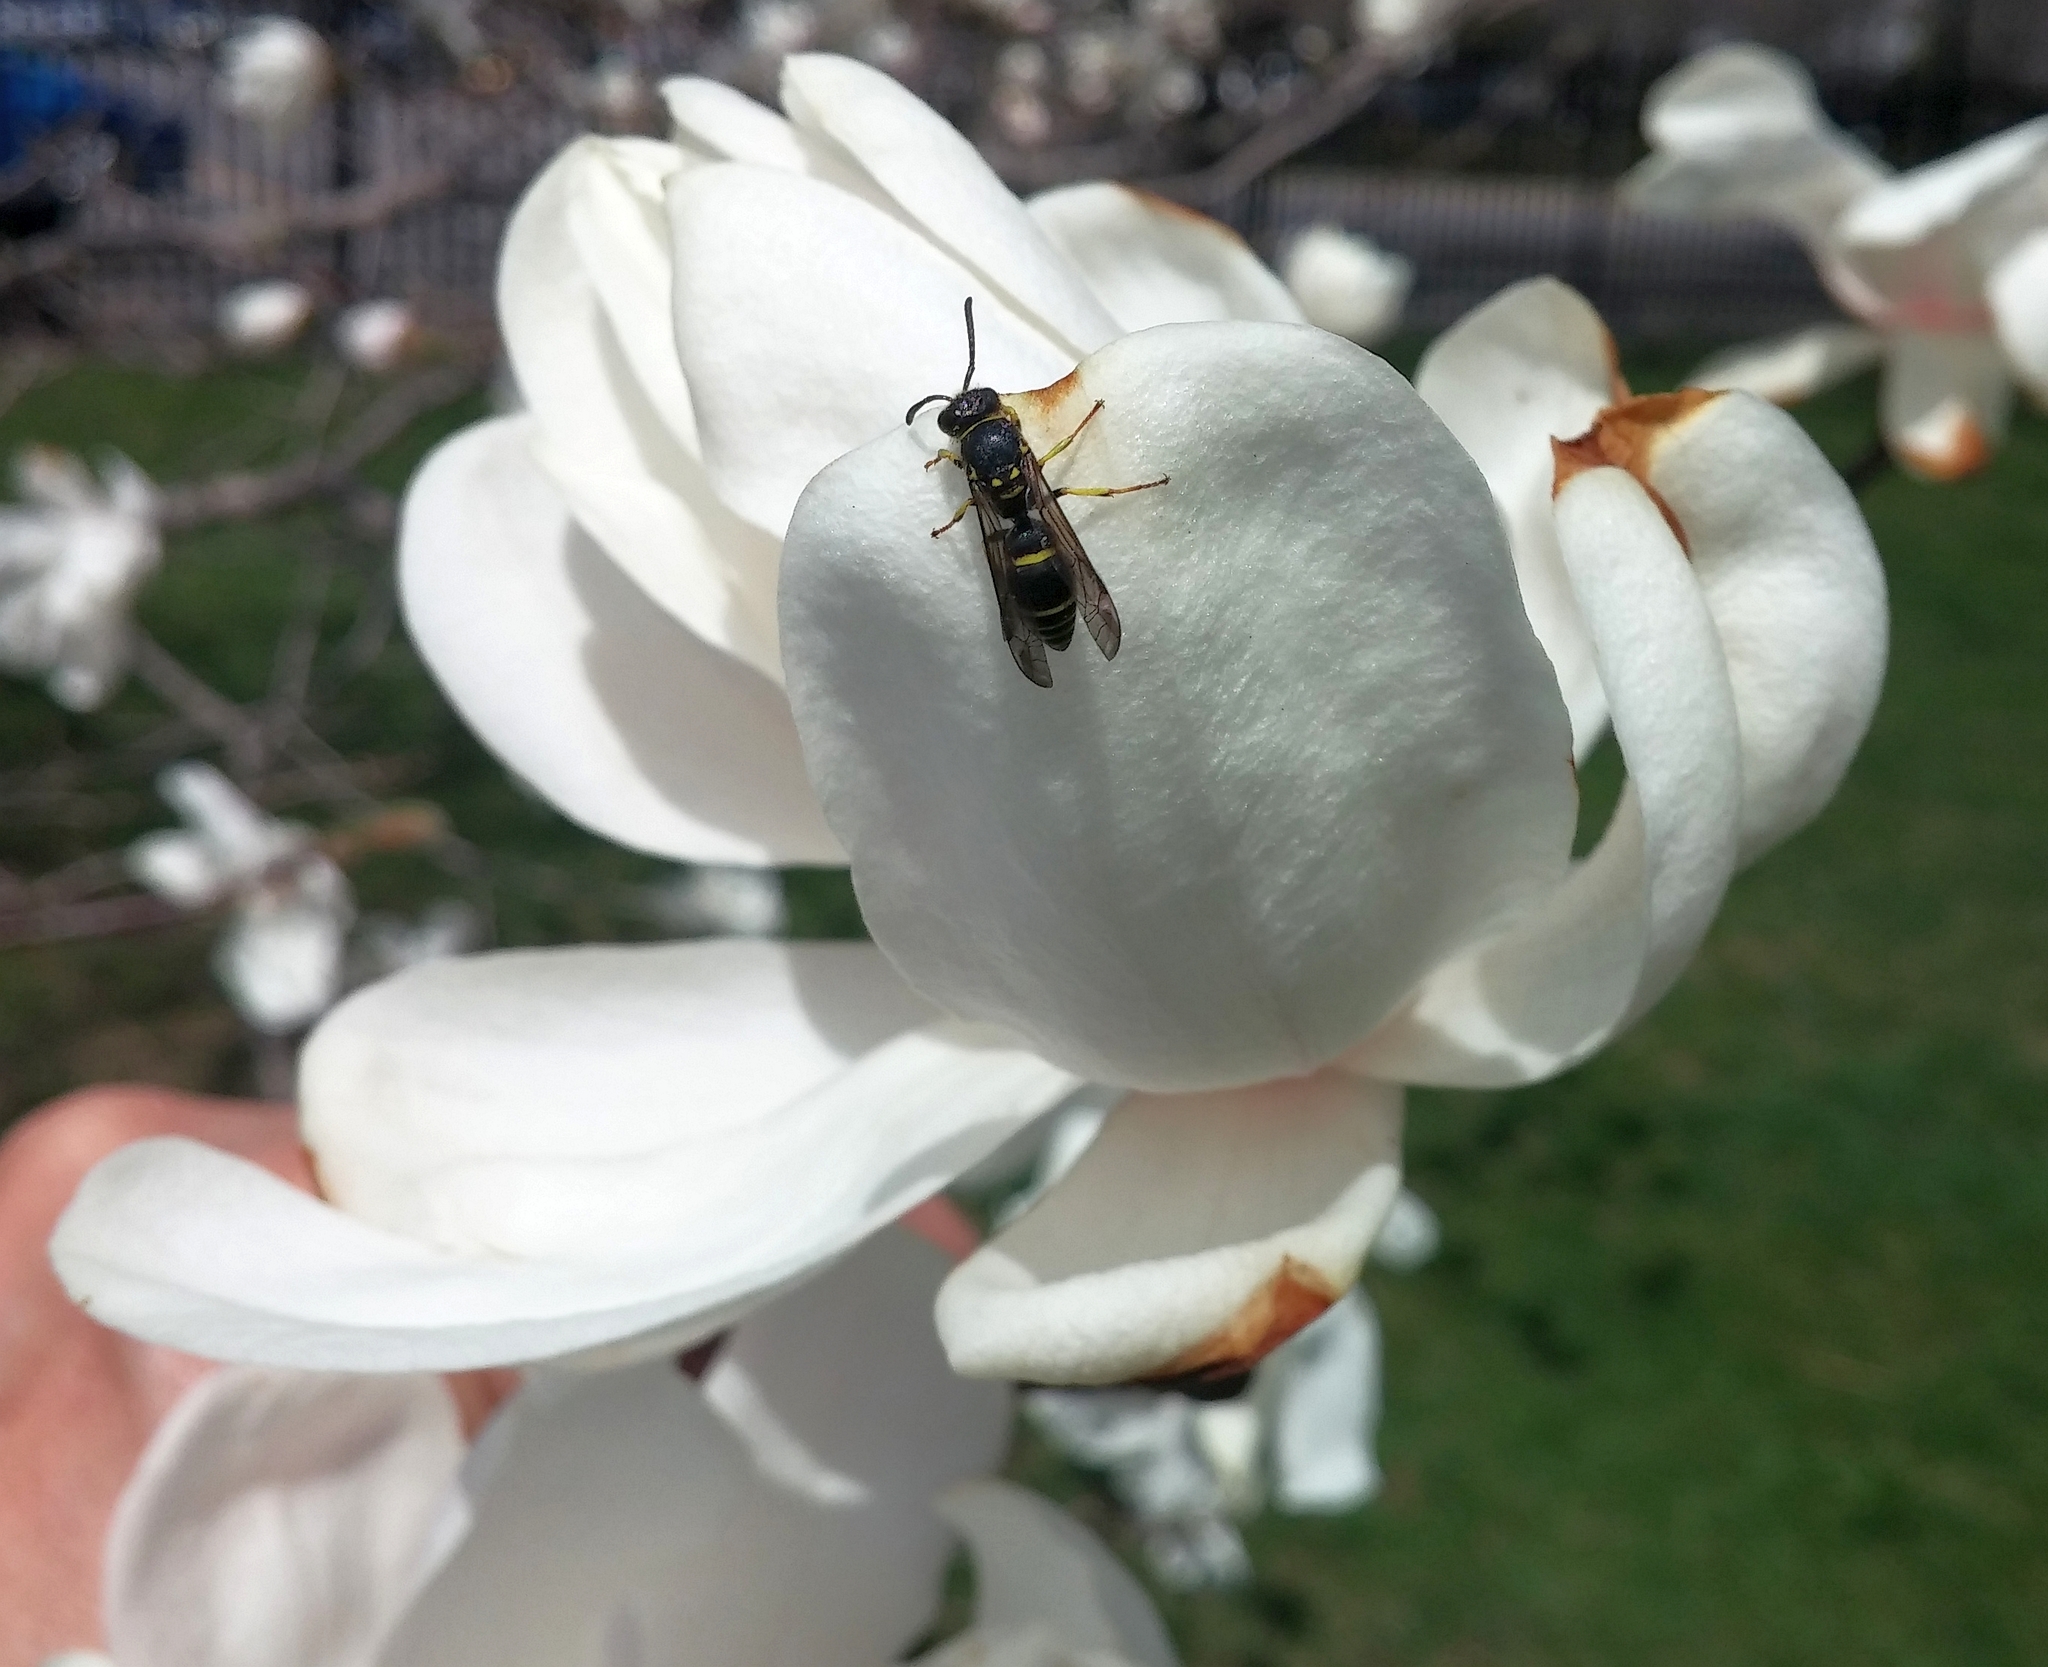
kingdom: Animalia
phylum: Arthropoda
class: Insecta
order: Hymenoptera
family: Vespidae
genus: Ancistrocerus
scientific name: Ancistrocerus adiabatus
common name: Bramble mason wasp
